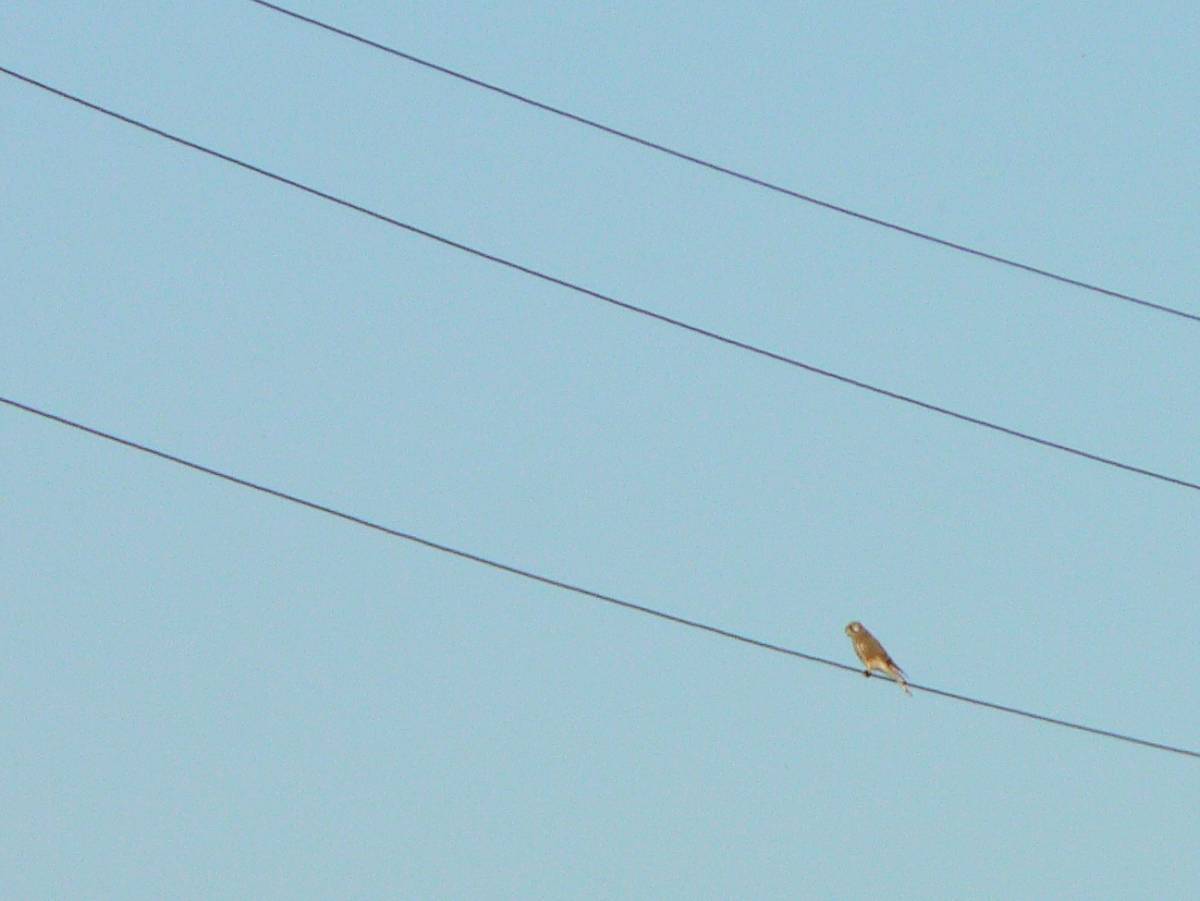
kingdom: Animalia
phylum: Chordata
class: Aves
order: Falconiformes
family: Falconidae
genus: Falco
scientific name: Falco tinnunculus
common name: Common kestrel
